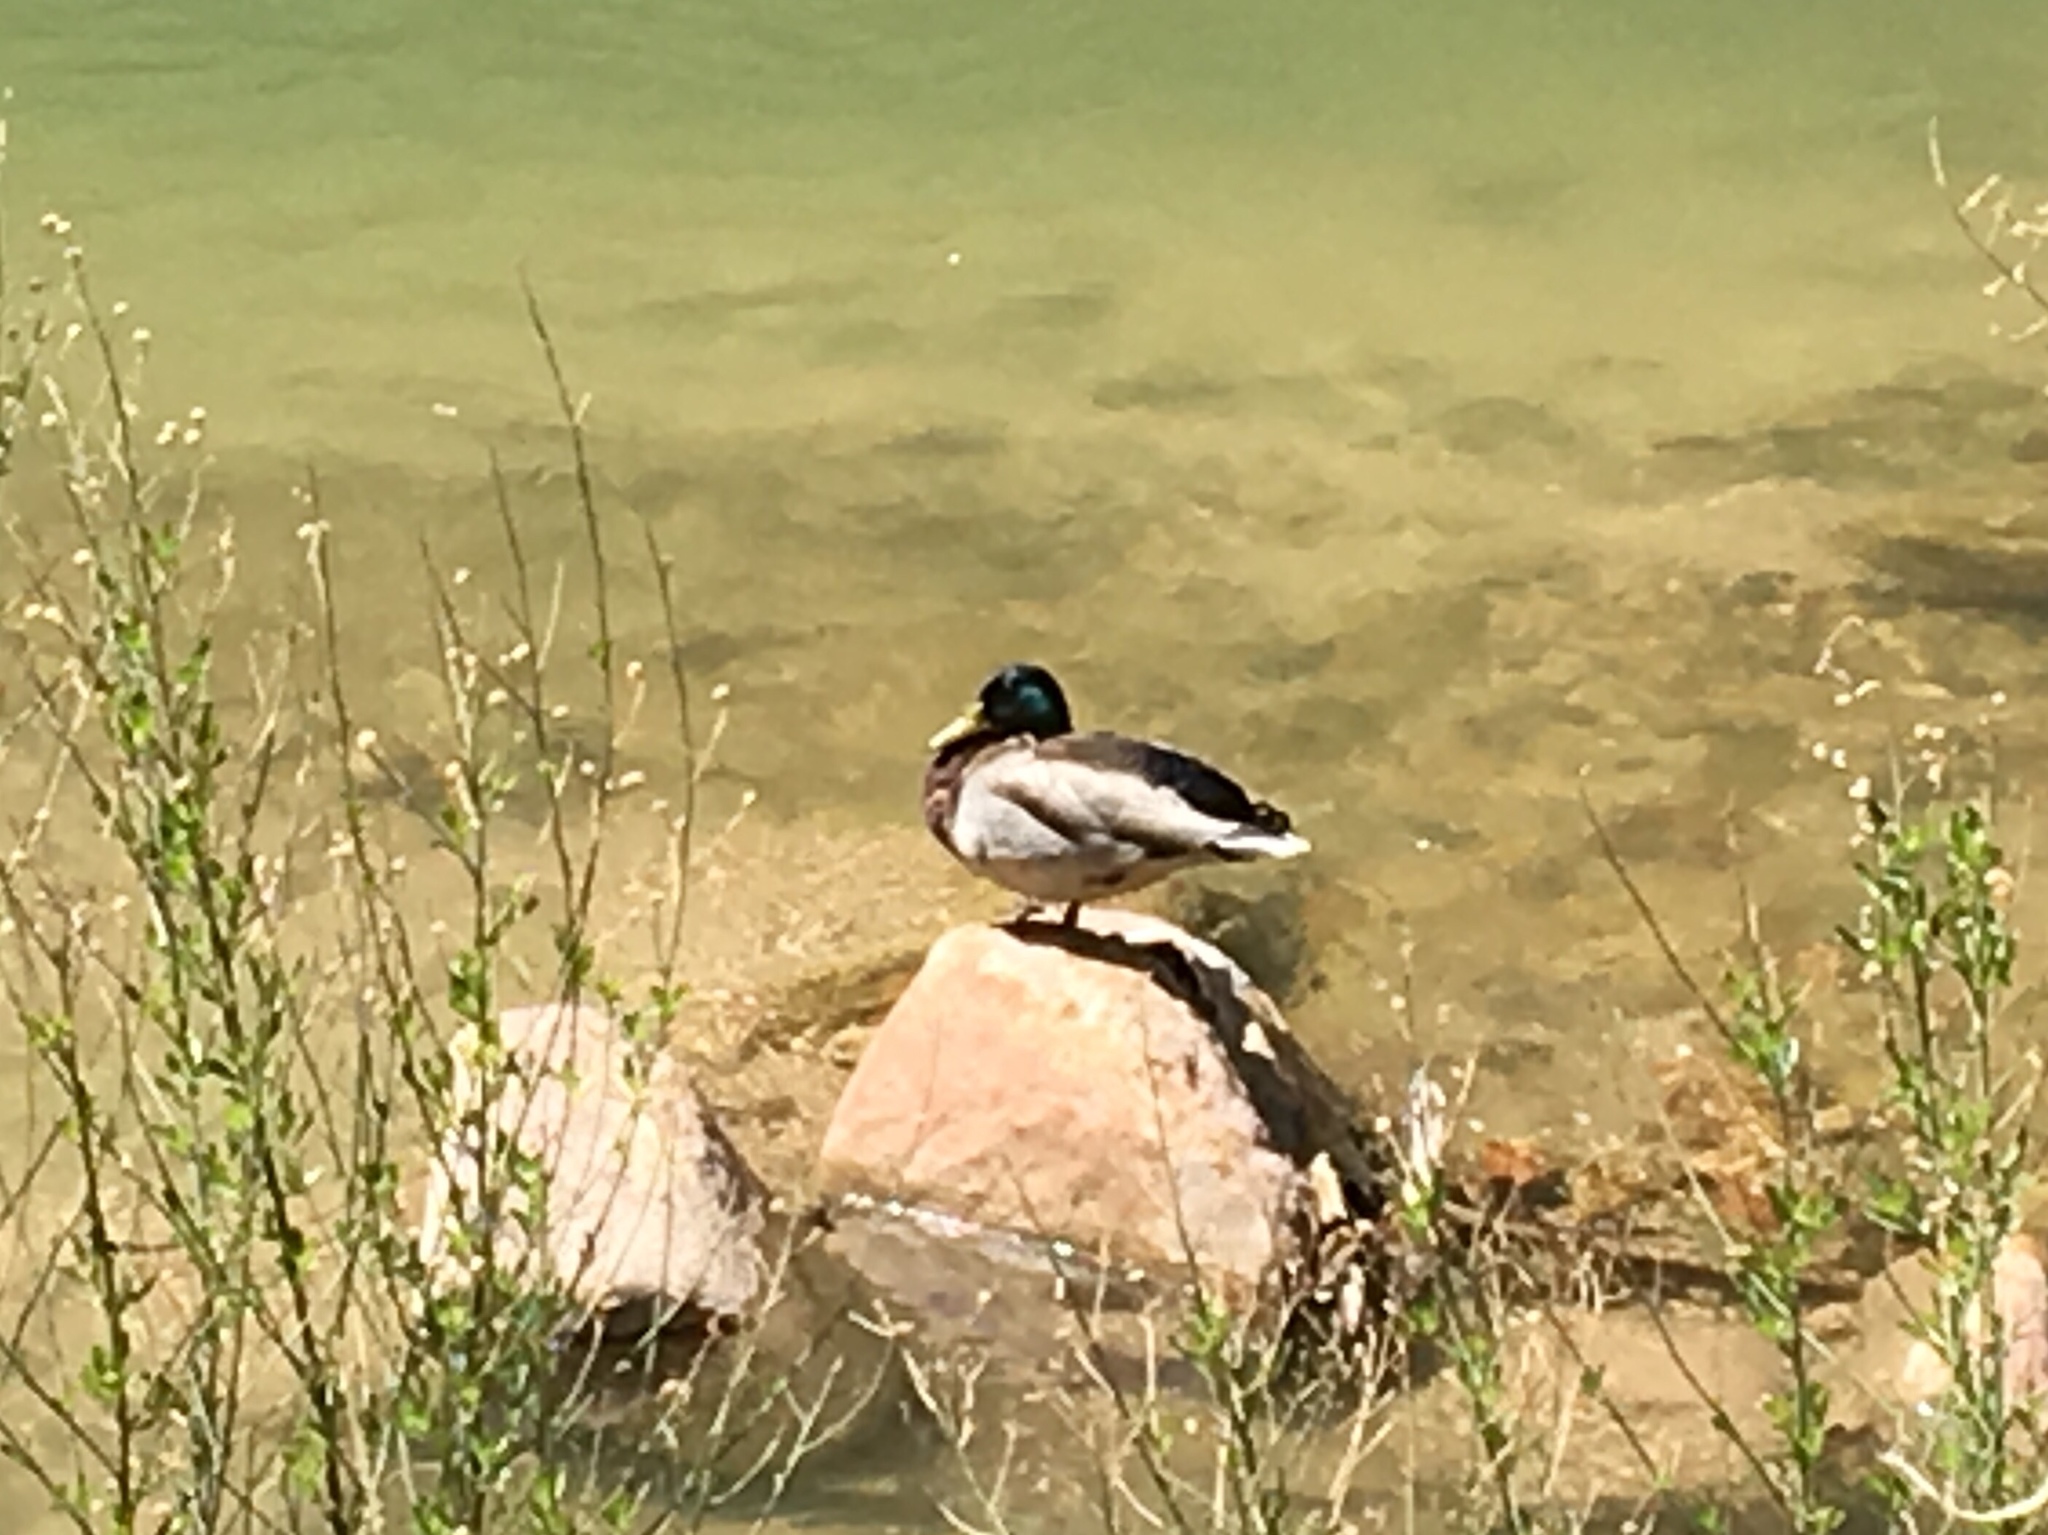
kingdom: Animalia
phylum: Chordata
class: Aves
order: Anseriformes
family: Anatidae
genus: Anas
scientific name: Anas platyrhynchos
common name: Mallard
